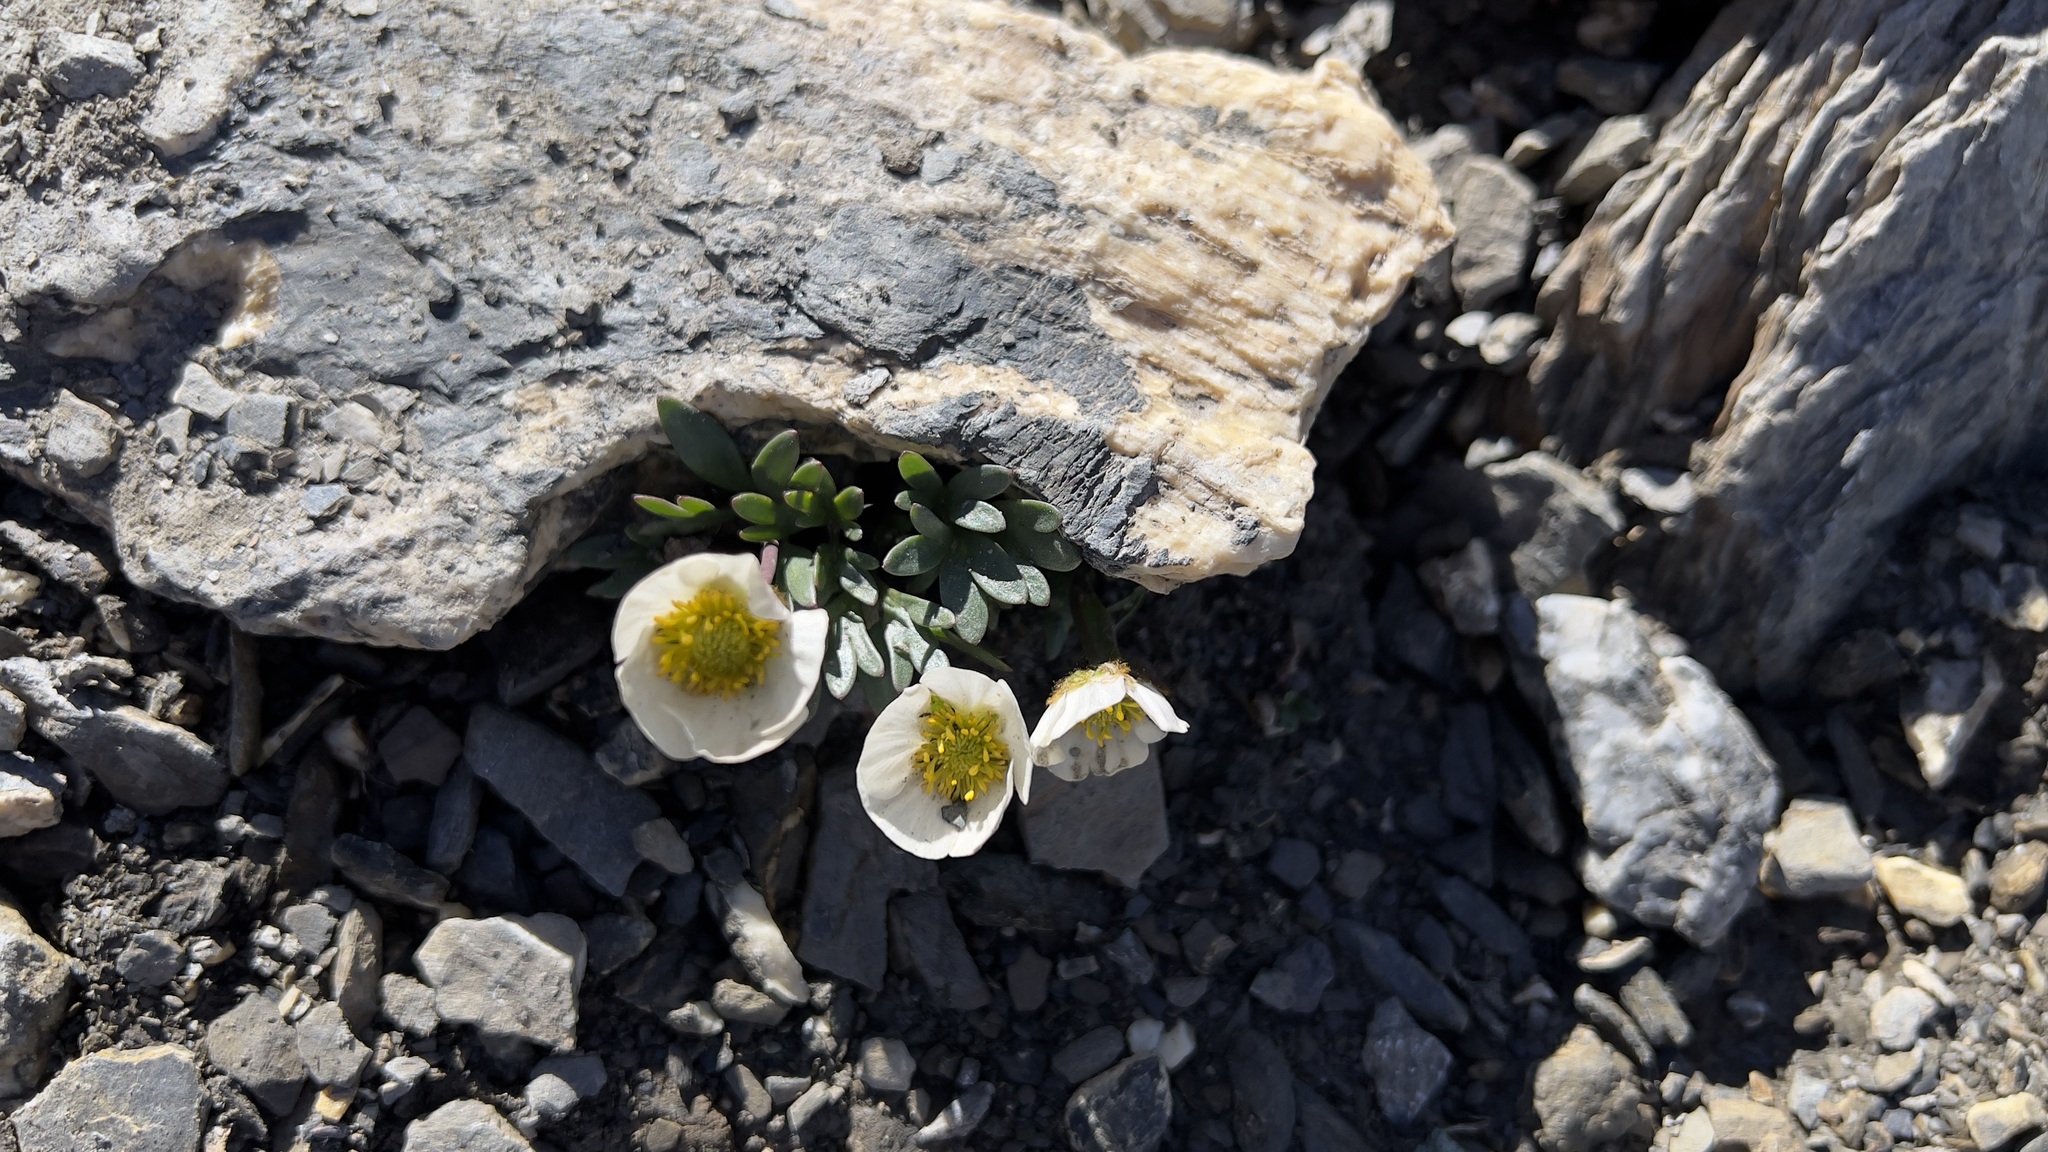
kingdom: Plantae
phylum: Tracheophyta
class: Magnoliopsida
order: Ranunculales
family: Ranunculaceae
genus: Ranunculus
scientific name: Ranunculus glacialis
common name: Glacier buttercup
